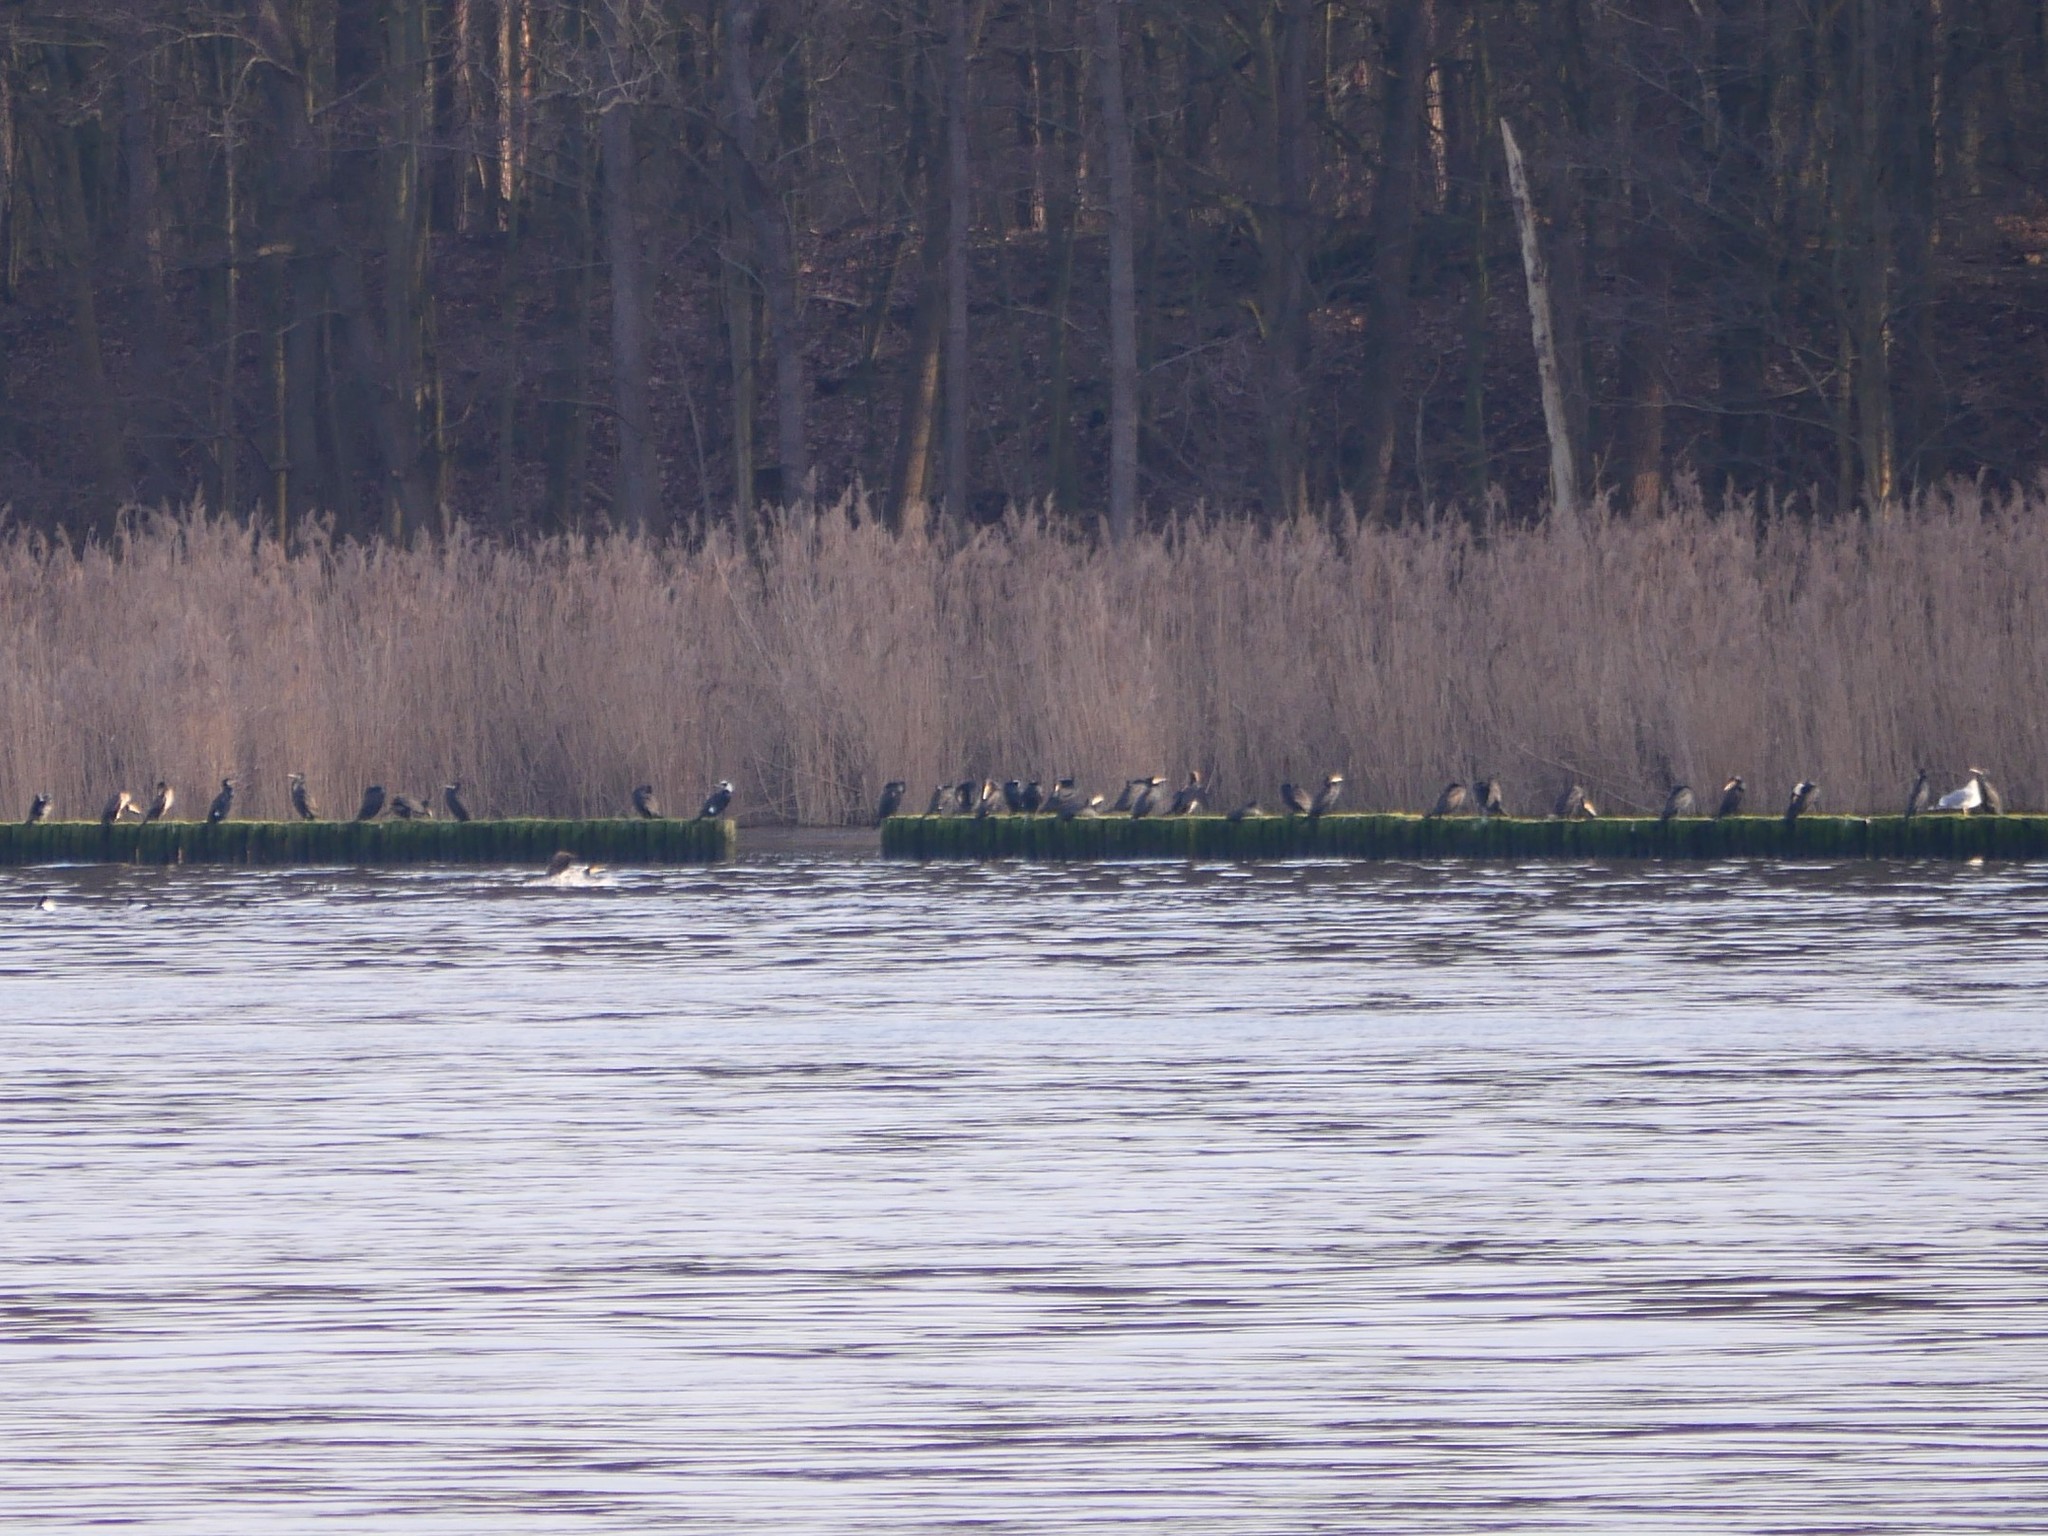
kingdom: Animalia
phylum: Chordata
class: Aves
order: Suliformes
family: Phalacrocoracidae
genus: Phalacrocorax
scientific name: Phalacrocorax carbo
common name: Great cormorant
